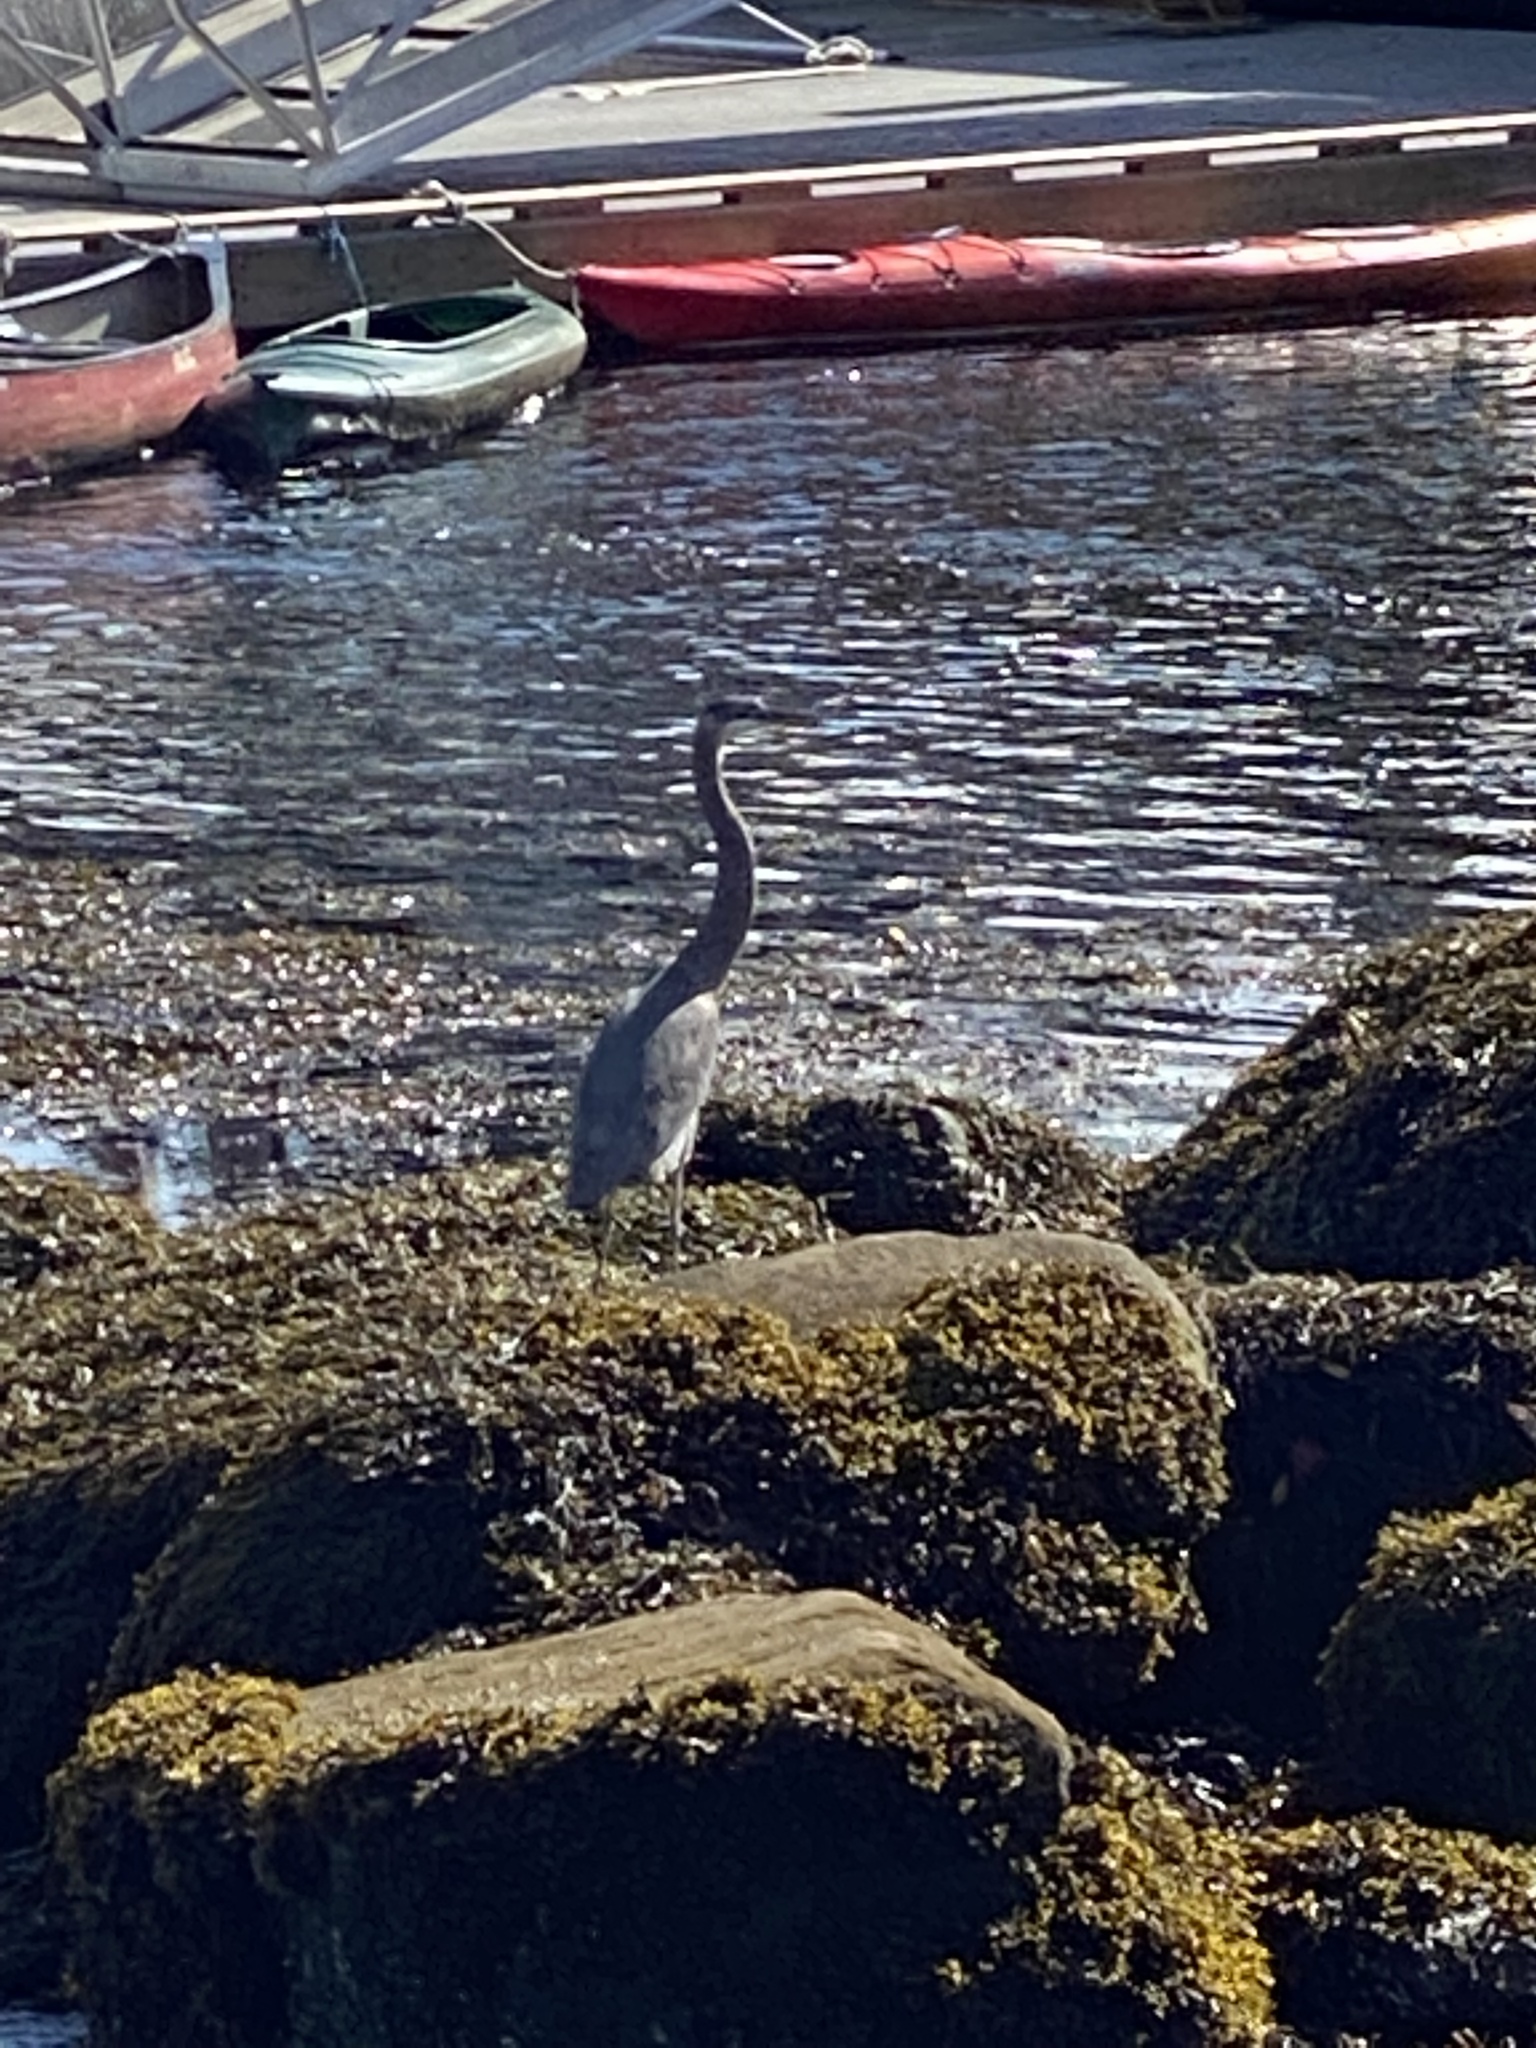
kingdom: Animalia
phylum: Chordata
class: Aves
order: Pelecaniformes
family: Ardeidae
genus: Ardea
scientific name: Ardea herodias
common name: Great blue heron
